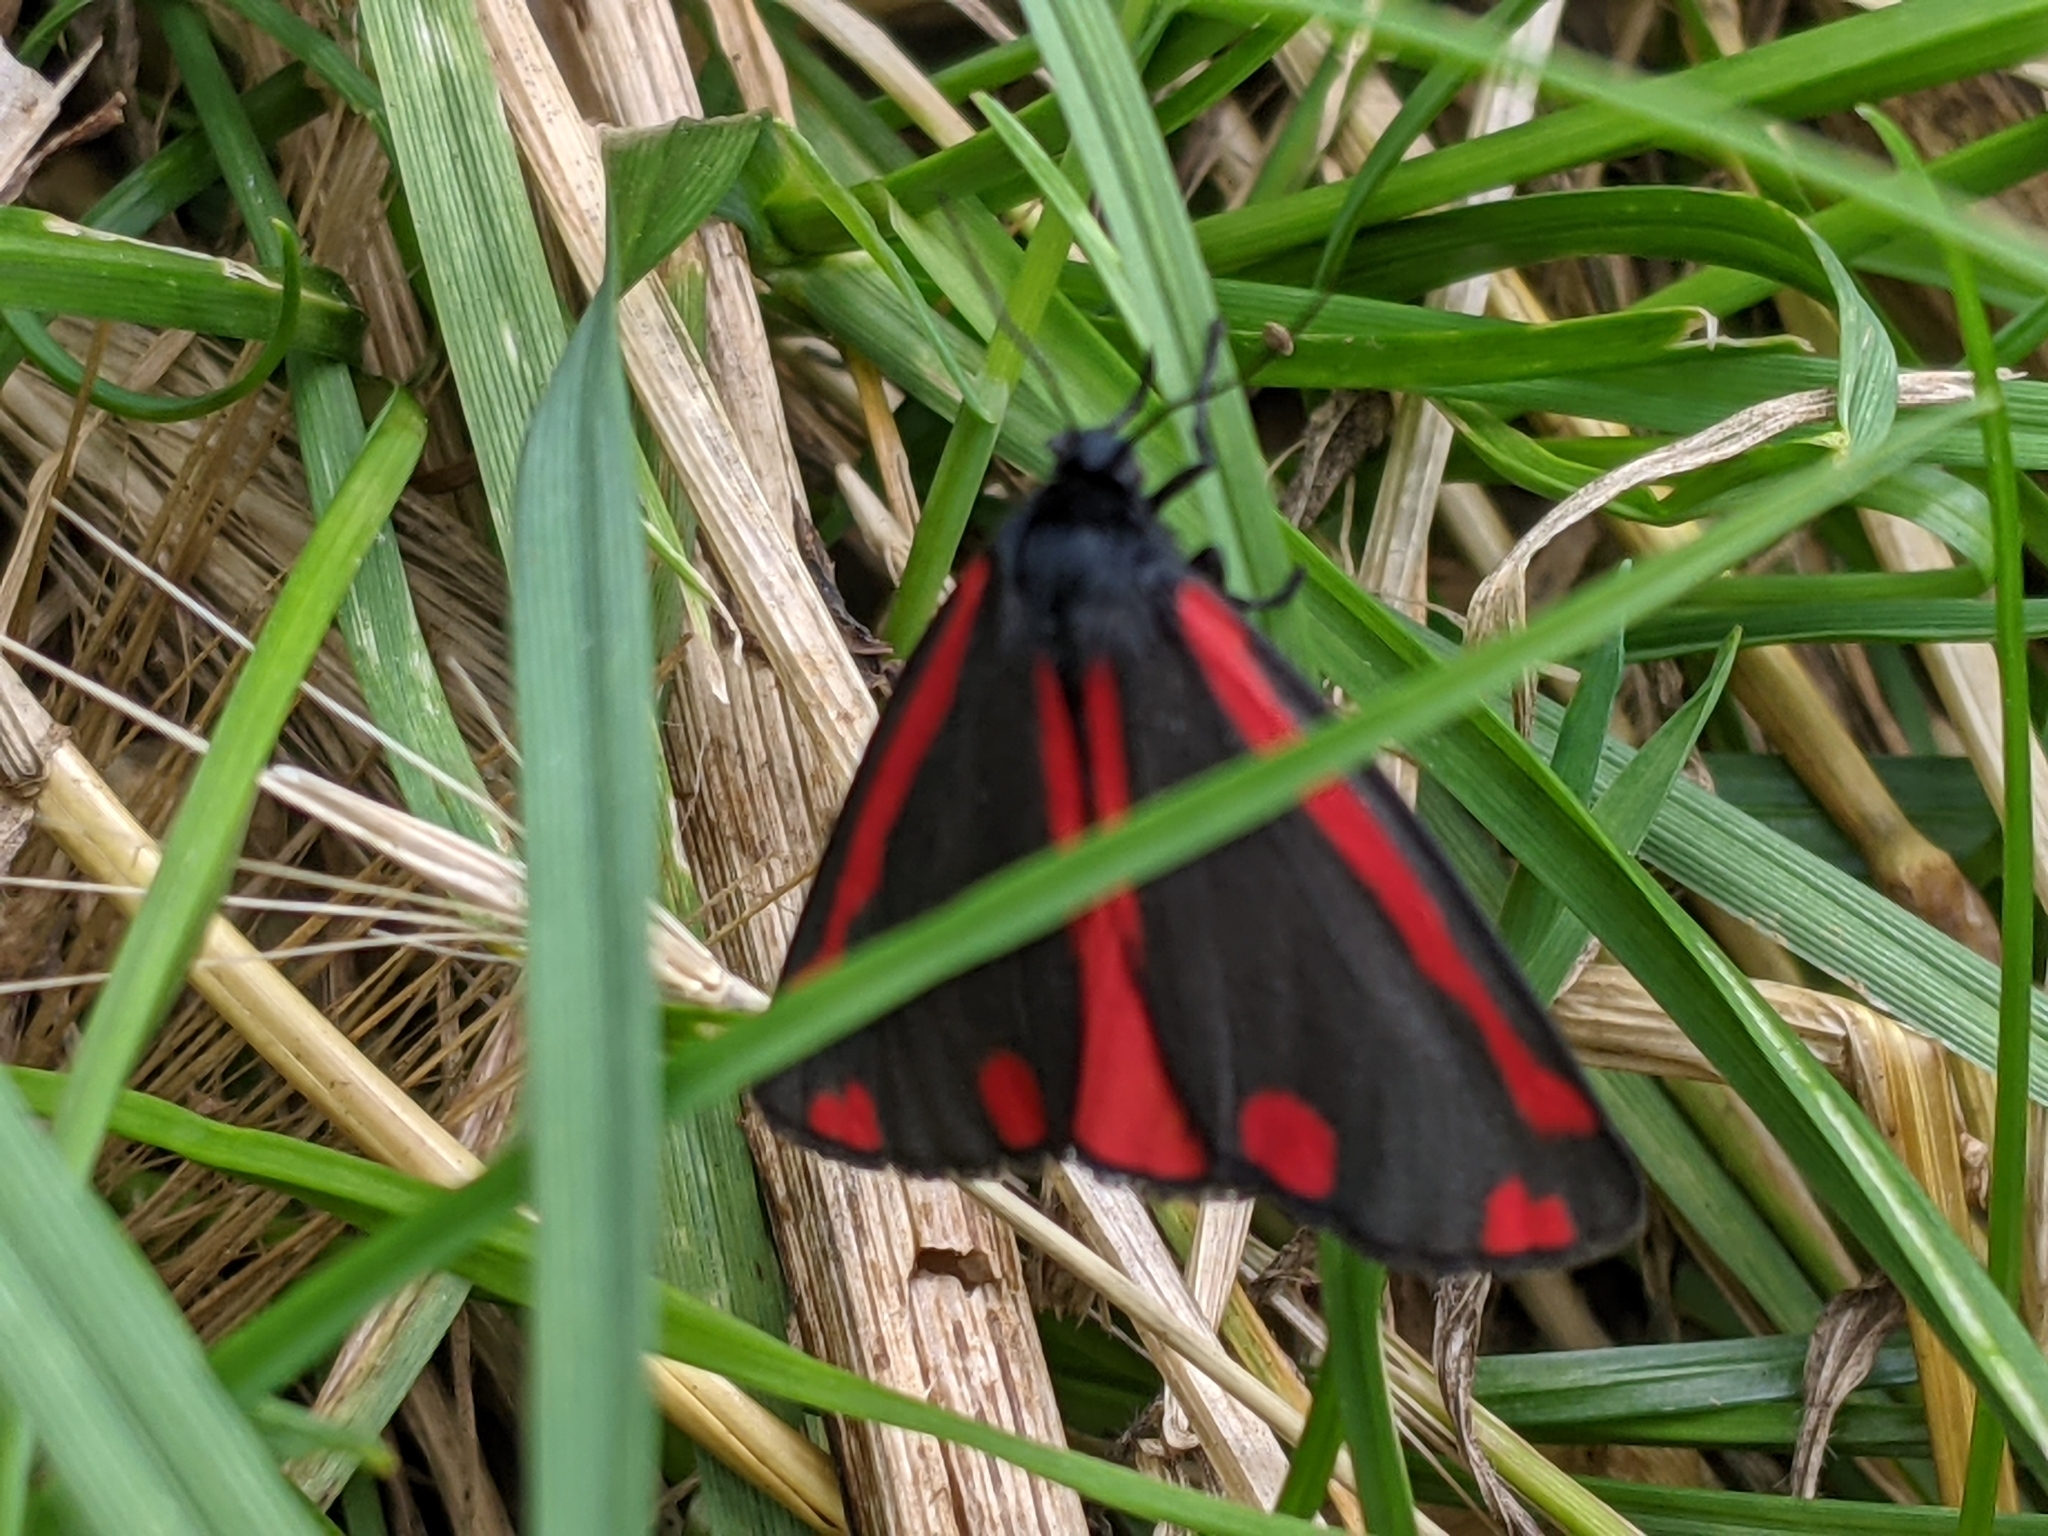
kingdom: Animalia
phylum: Arthropoda
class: Insecta
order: Lepidoptera
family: Erebidae
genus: Tyria
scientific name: Tyria jacobaeae
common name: Cinnabar
